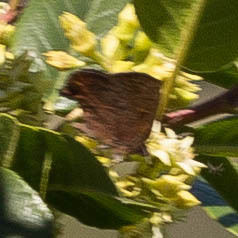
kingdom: Animalia
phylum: Arthropoda
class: Insecta
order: Lepidoptera
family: Lycaenidae
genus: Incisalia
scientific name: Incisalia irioides
